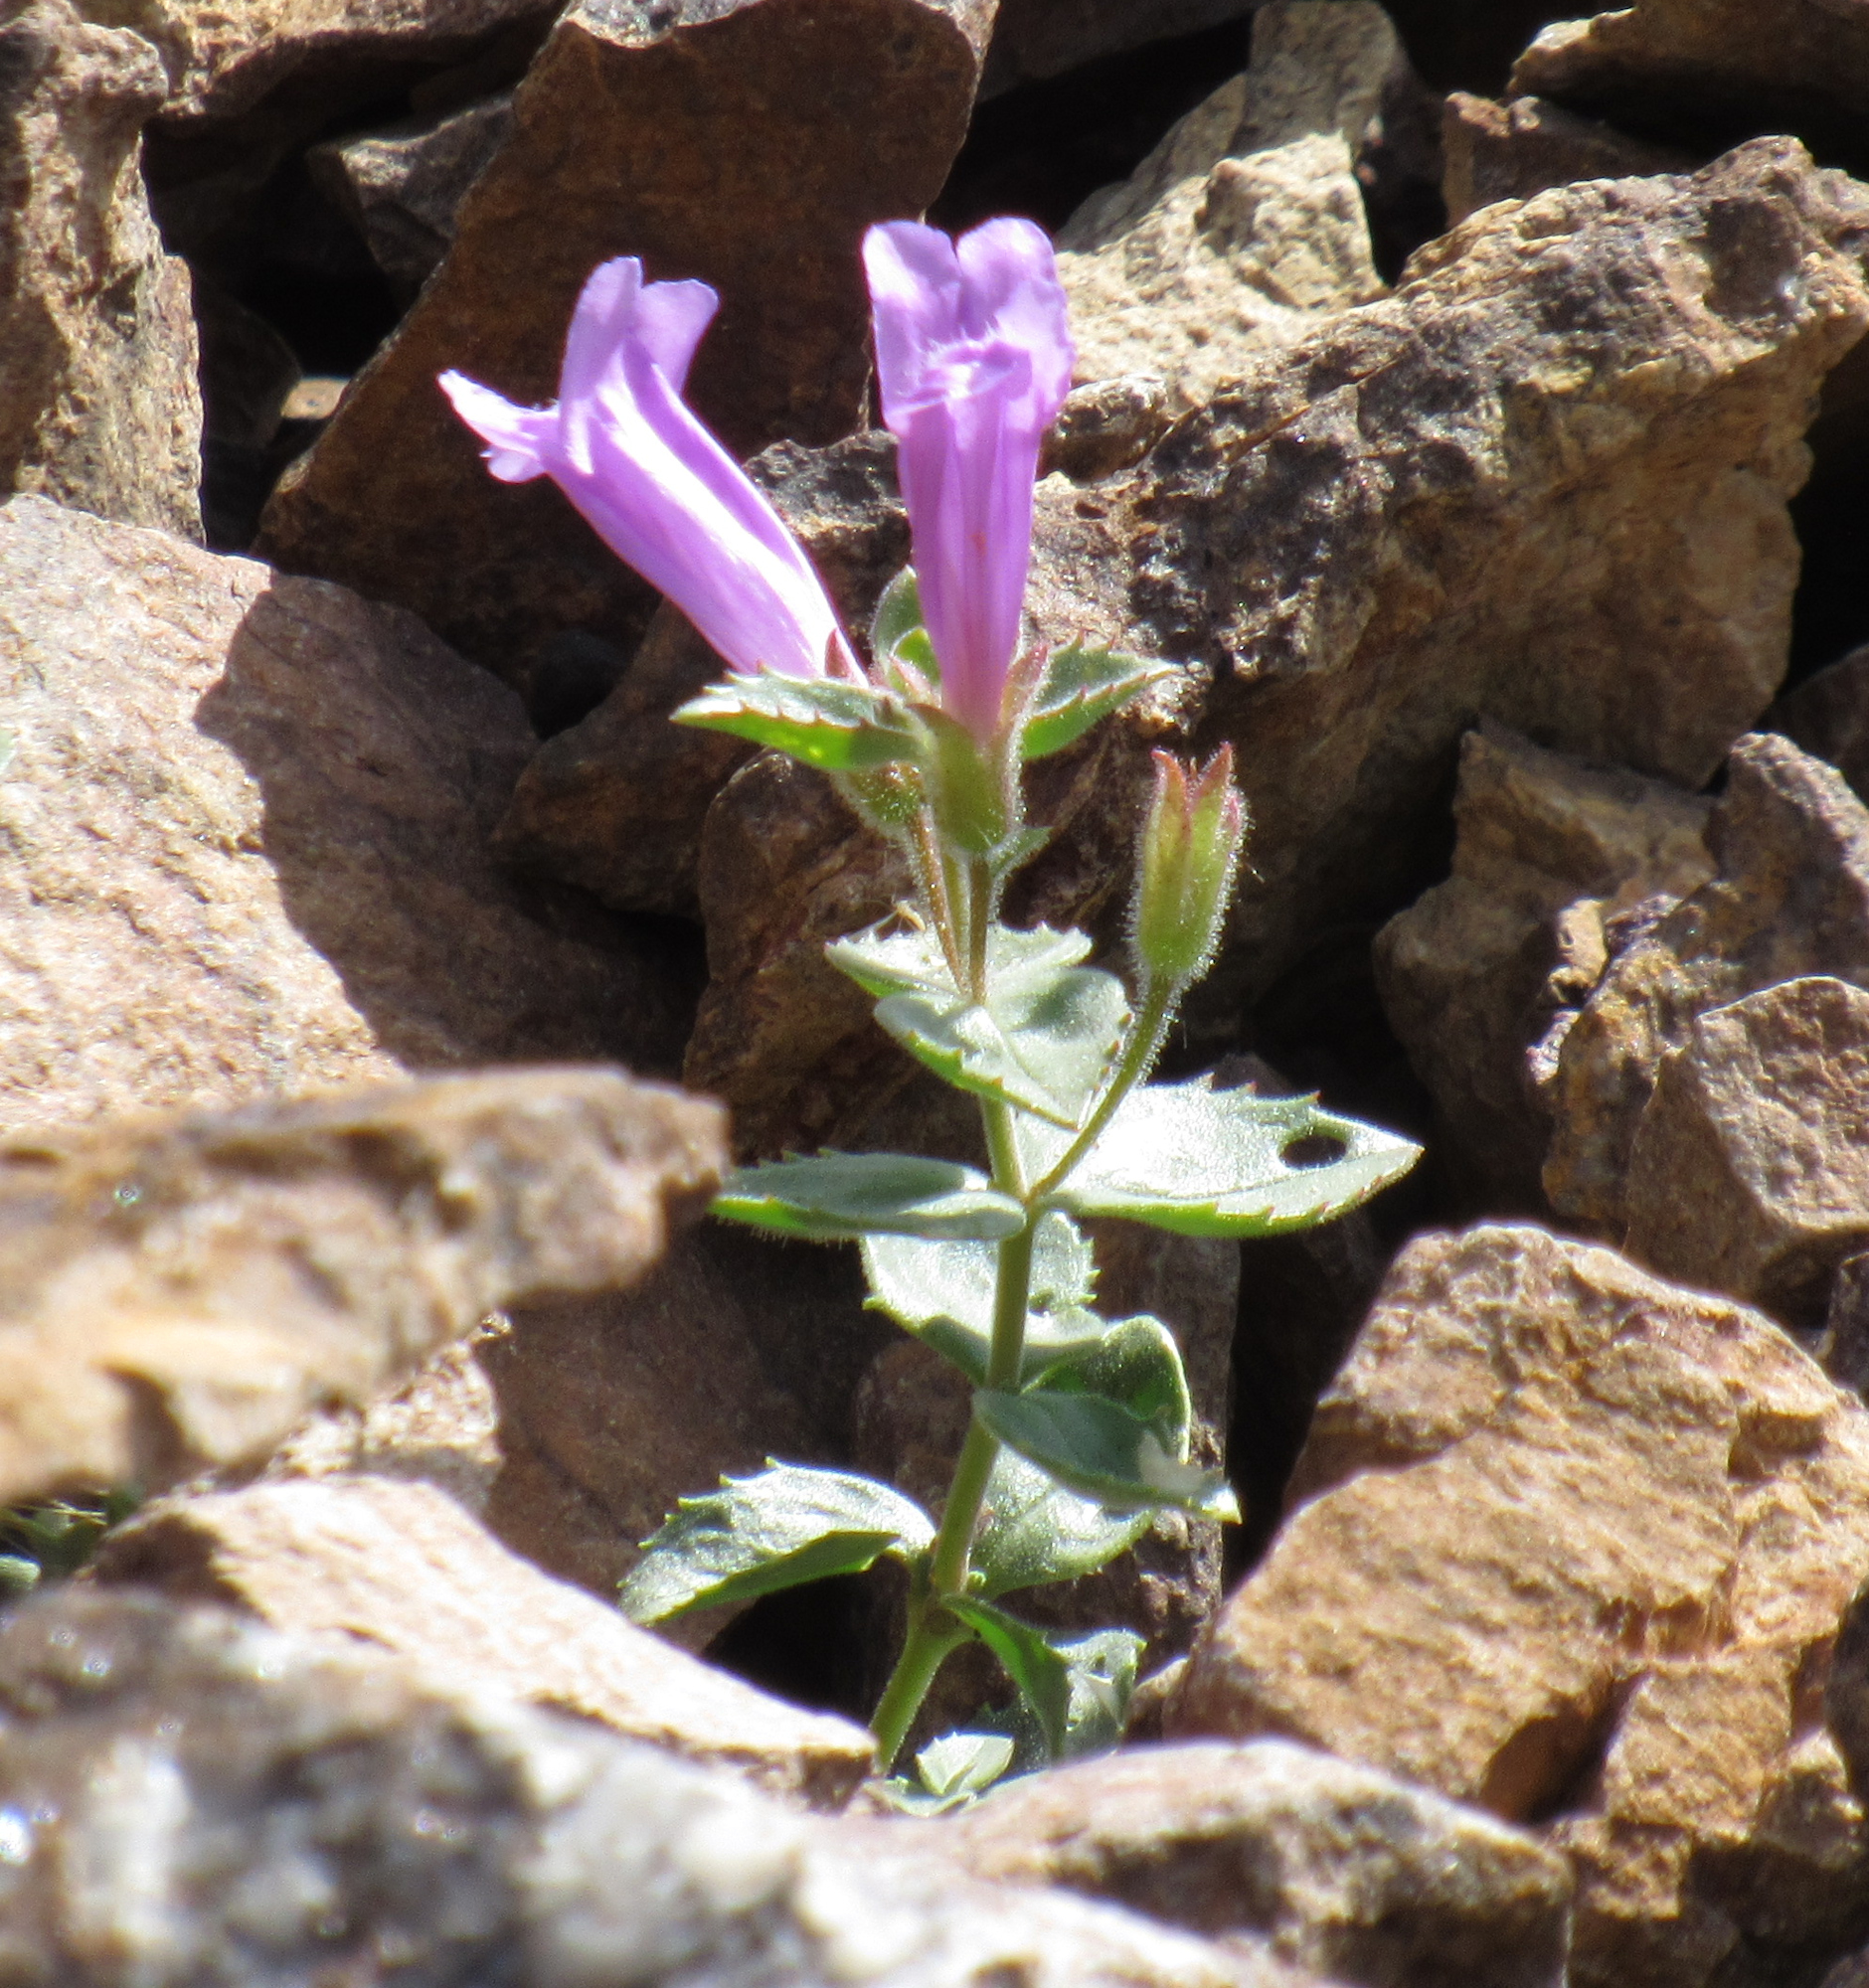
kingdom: Plantae
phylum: Tracheophyta
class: Magnoliopsida
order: Lamiales
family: Plantaginaceae
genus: Penstemon
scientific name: Penstemon montanus
